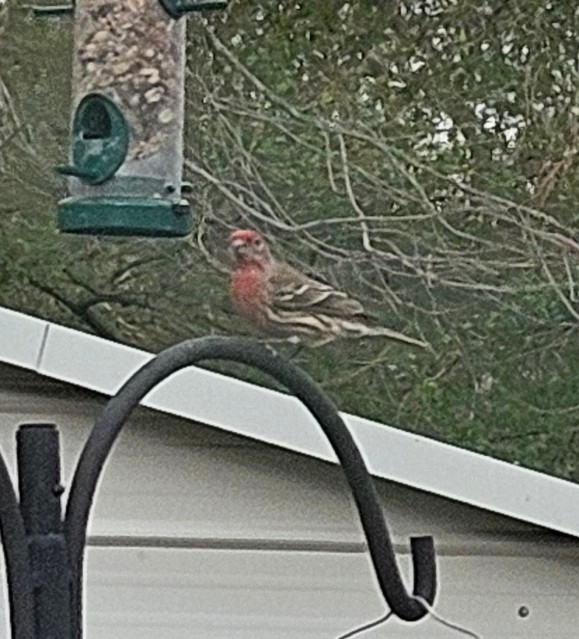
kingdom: Animalia
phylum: Chordata
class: Aves
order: Passeriformes
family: Fringillidae
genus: Haemorhous
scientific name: Haemorhous mexicanus
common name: House finch
